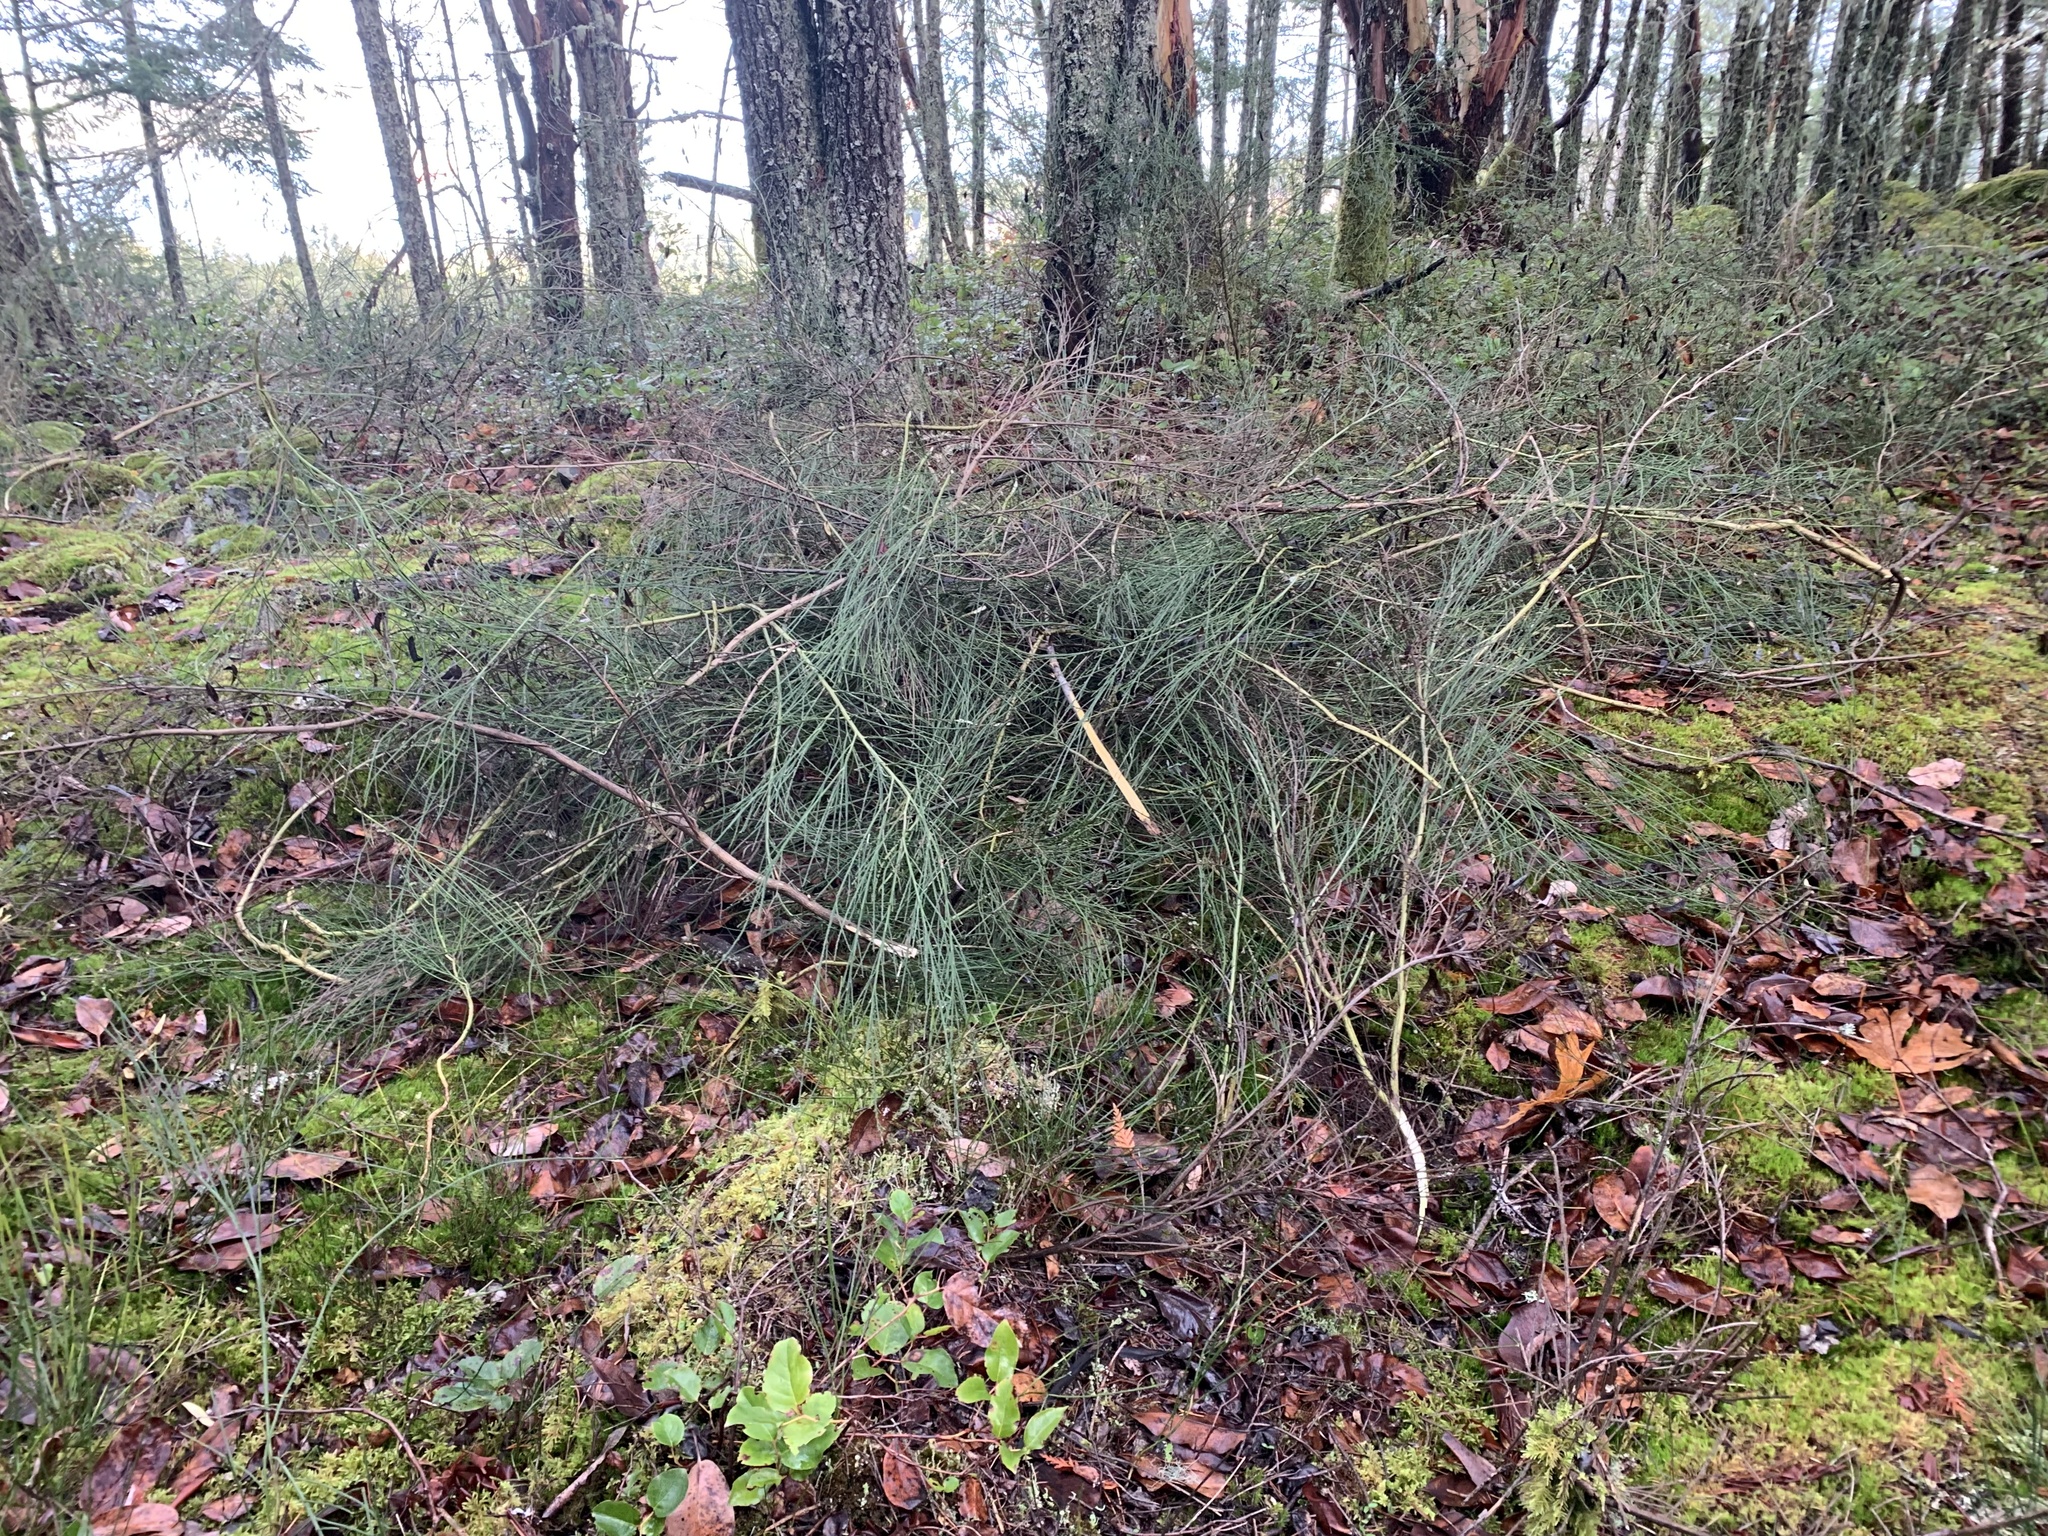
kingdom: Plantae
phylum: Tracheophyta
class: Magnoliopsida
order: Fabales
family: Fabaceae
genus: Cytisus
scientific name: Cytisus scoparius
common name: Scotch broom
